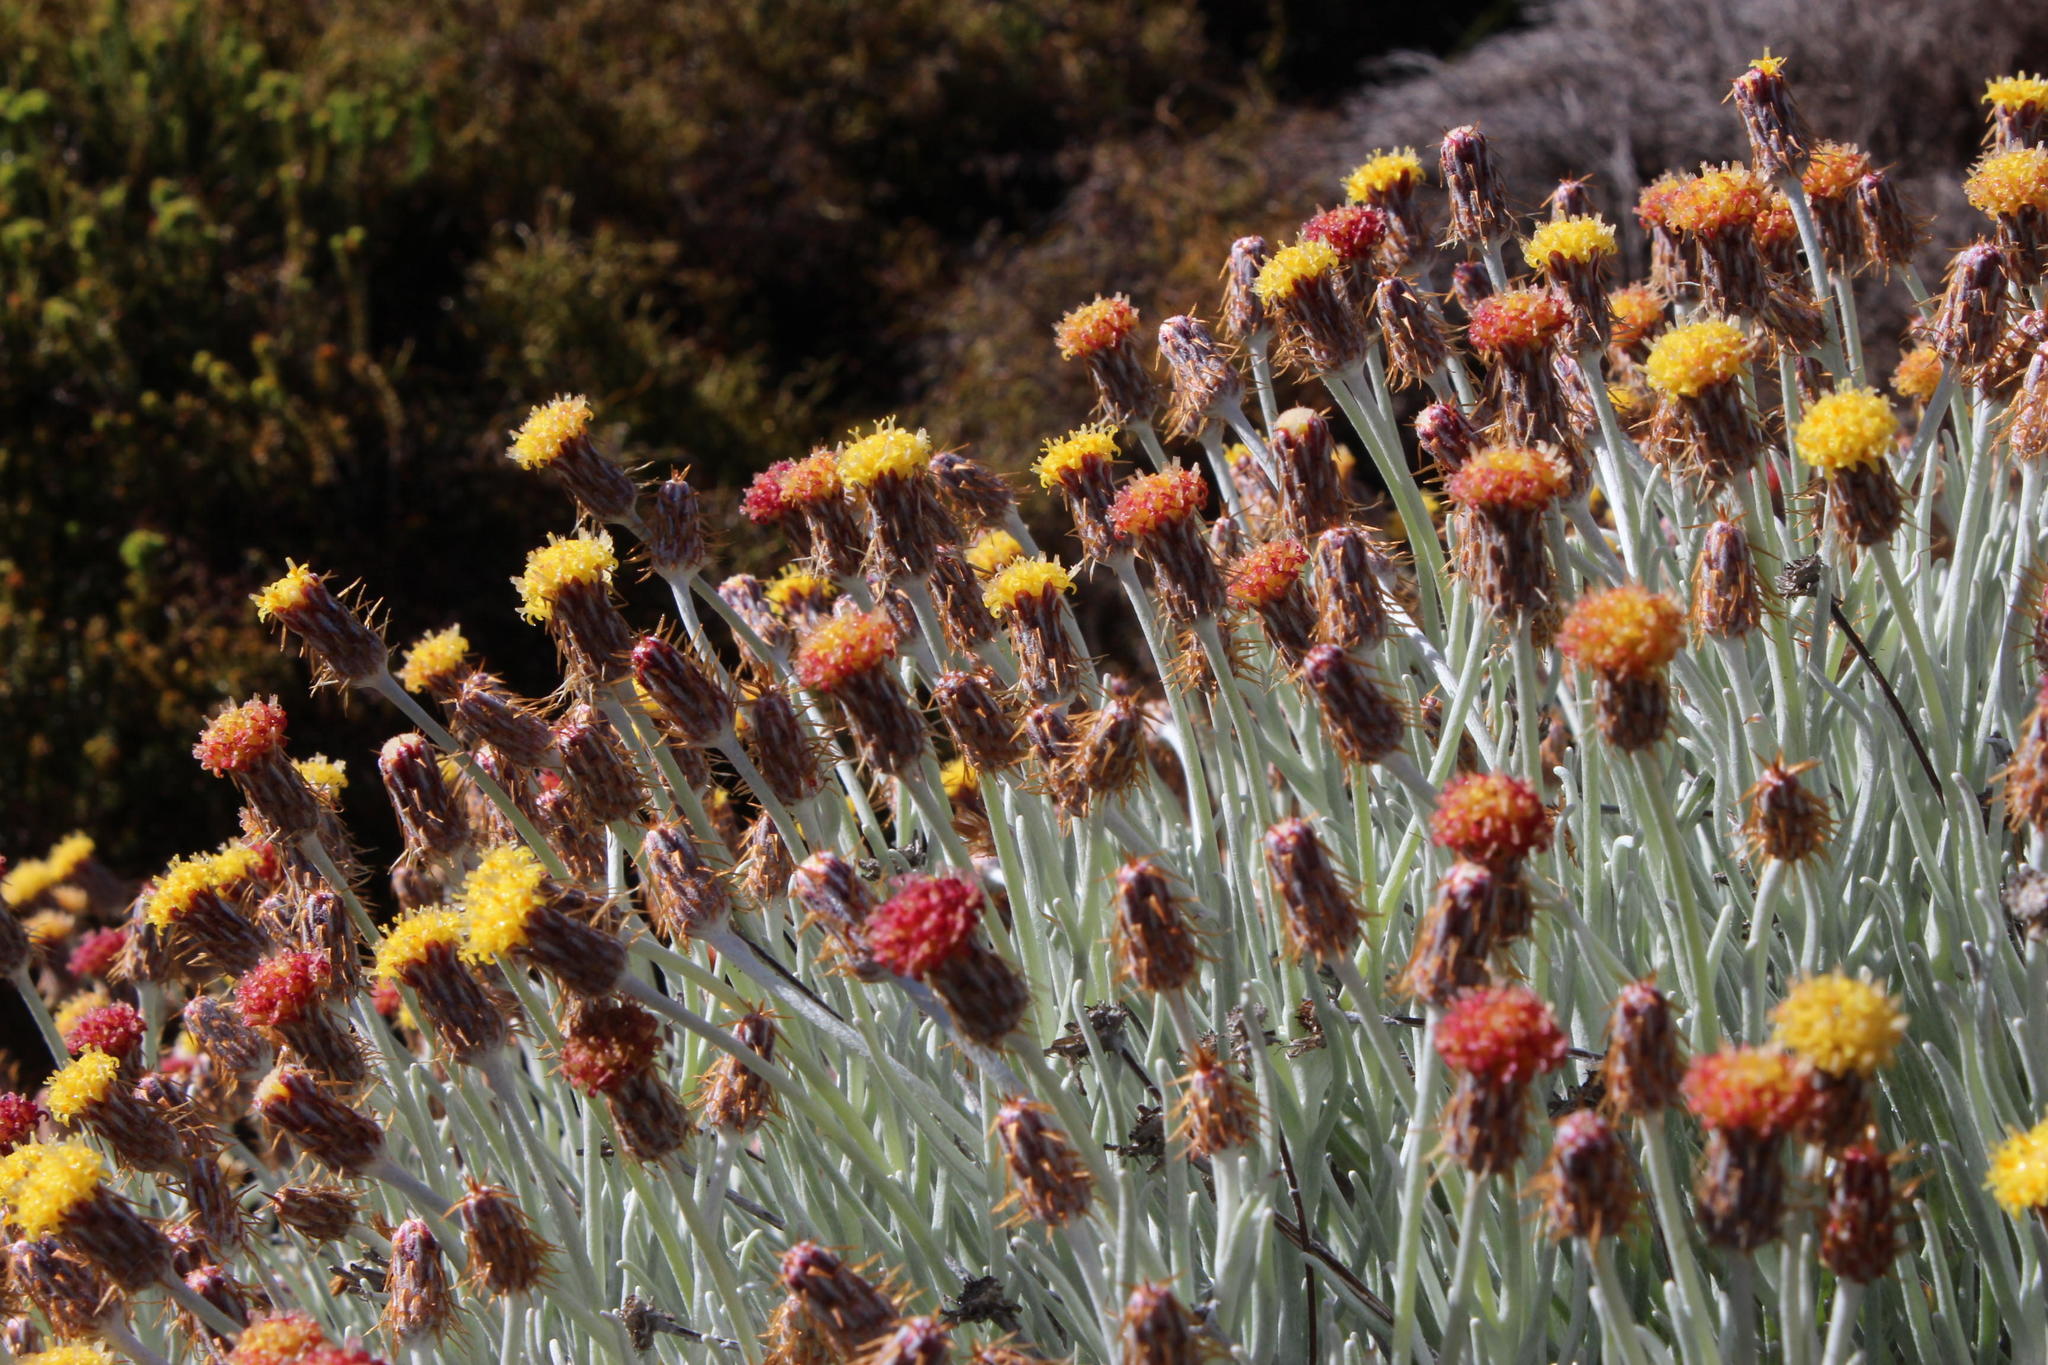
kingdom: Plantae
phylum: Tracheophyta
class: Magnoliopsida
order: Asterales
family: Asteraceae
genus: Syncarpha
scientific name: Syncarpha gnaphaloides
